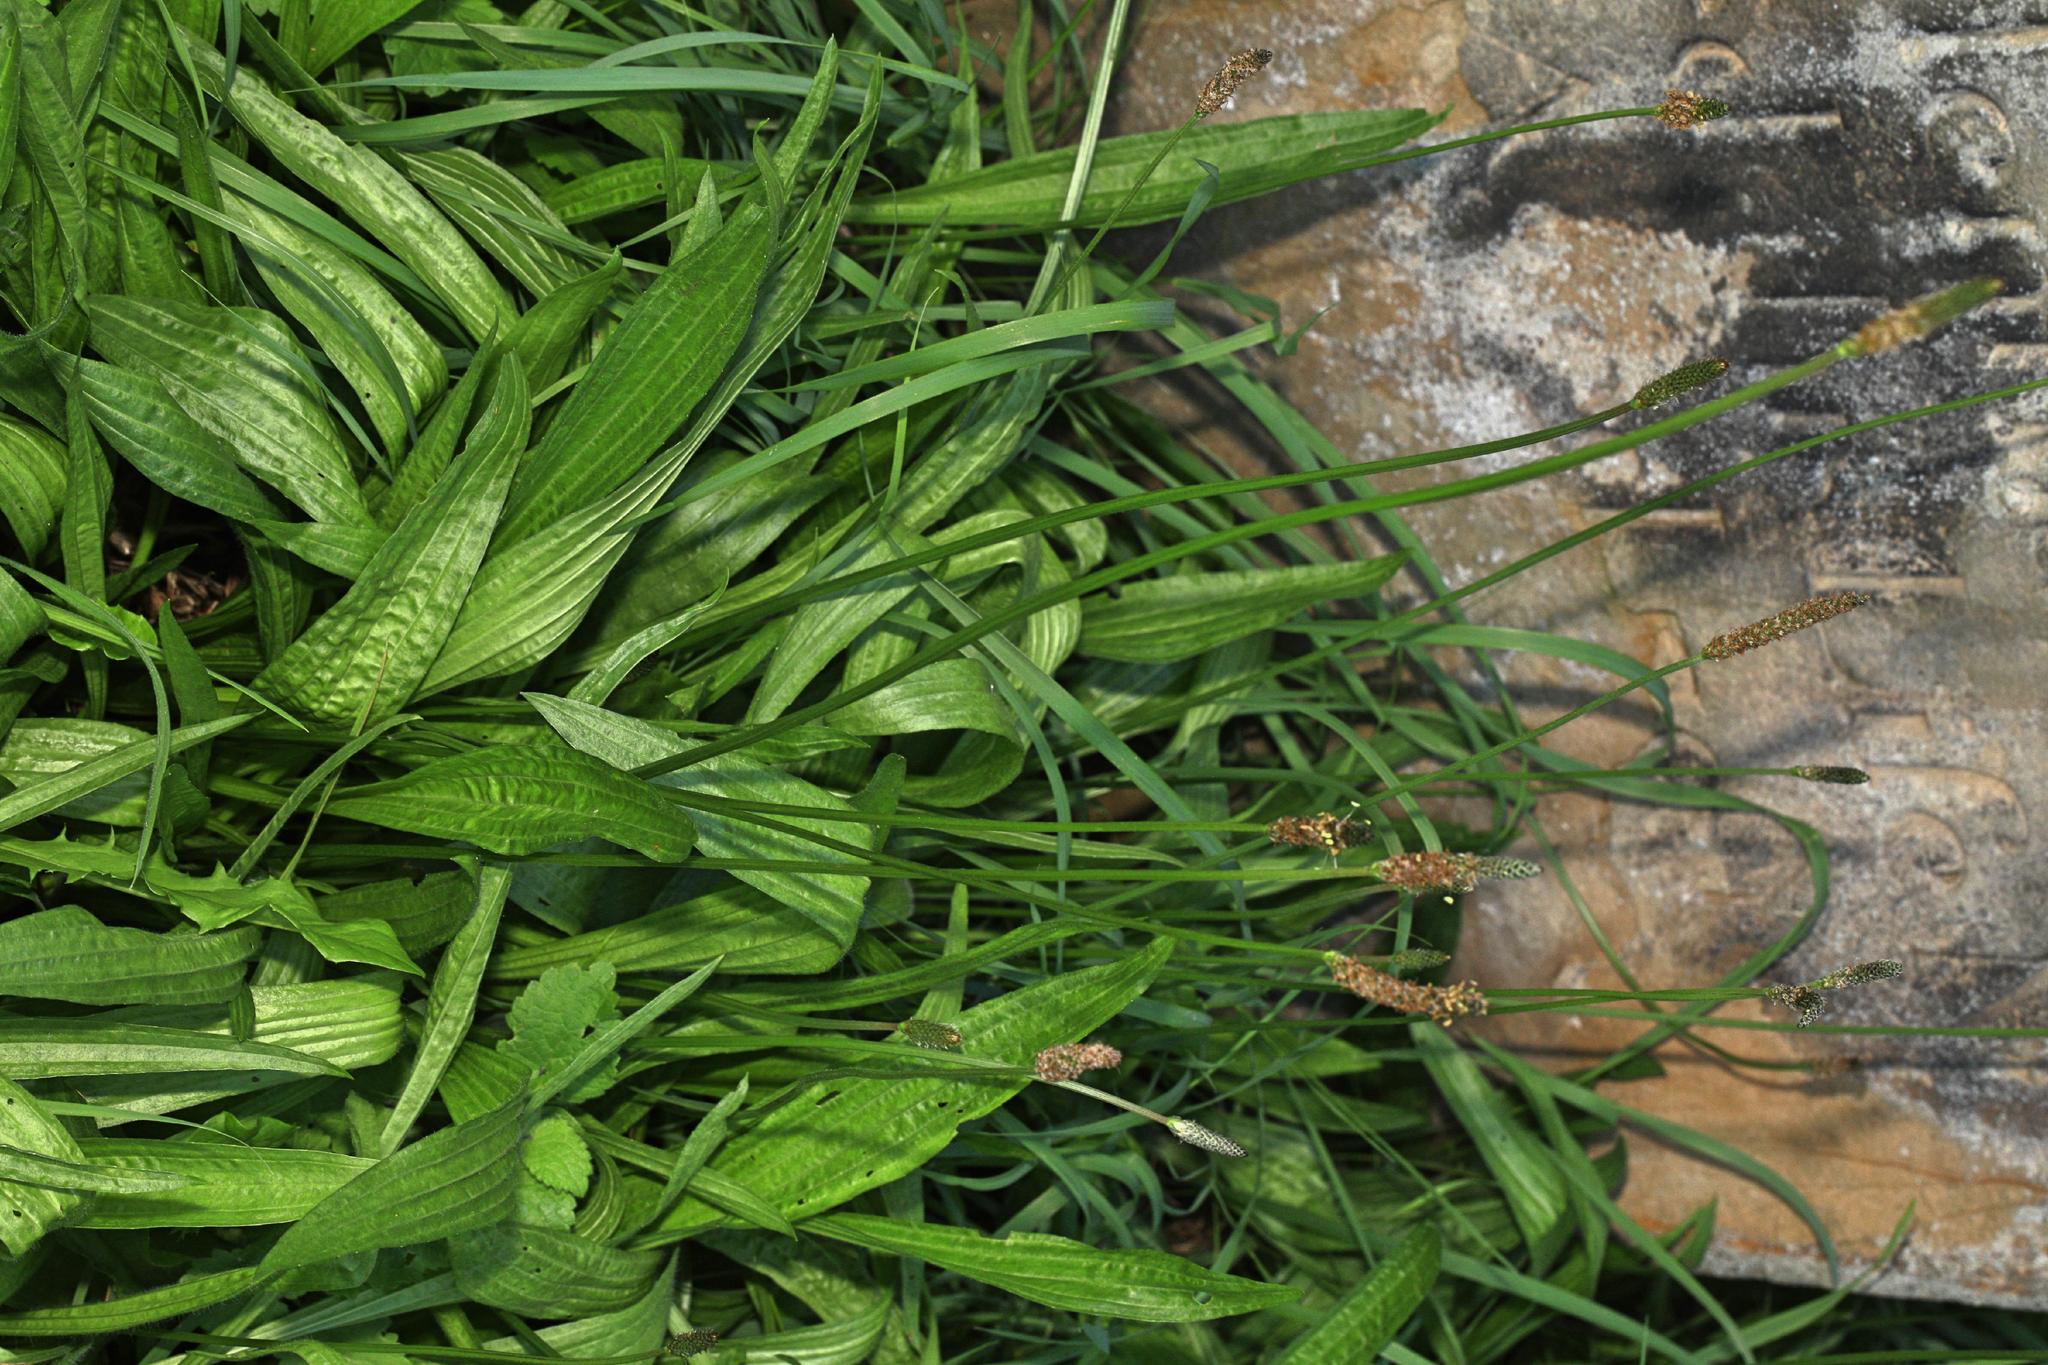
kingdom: Plantae
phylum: Tracheophyta
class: Magnoliopsida
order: Lamiales
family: Plantaginaceae
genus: Plantago
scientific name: Plantago lanceolata
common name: Ribwort plantain
